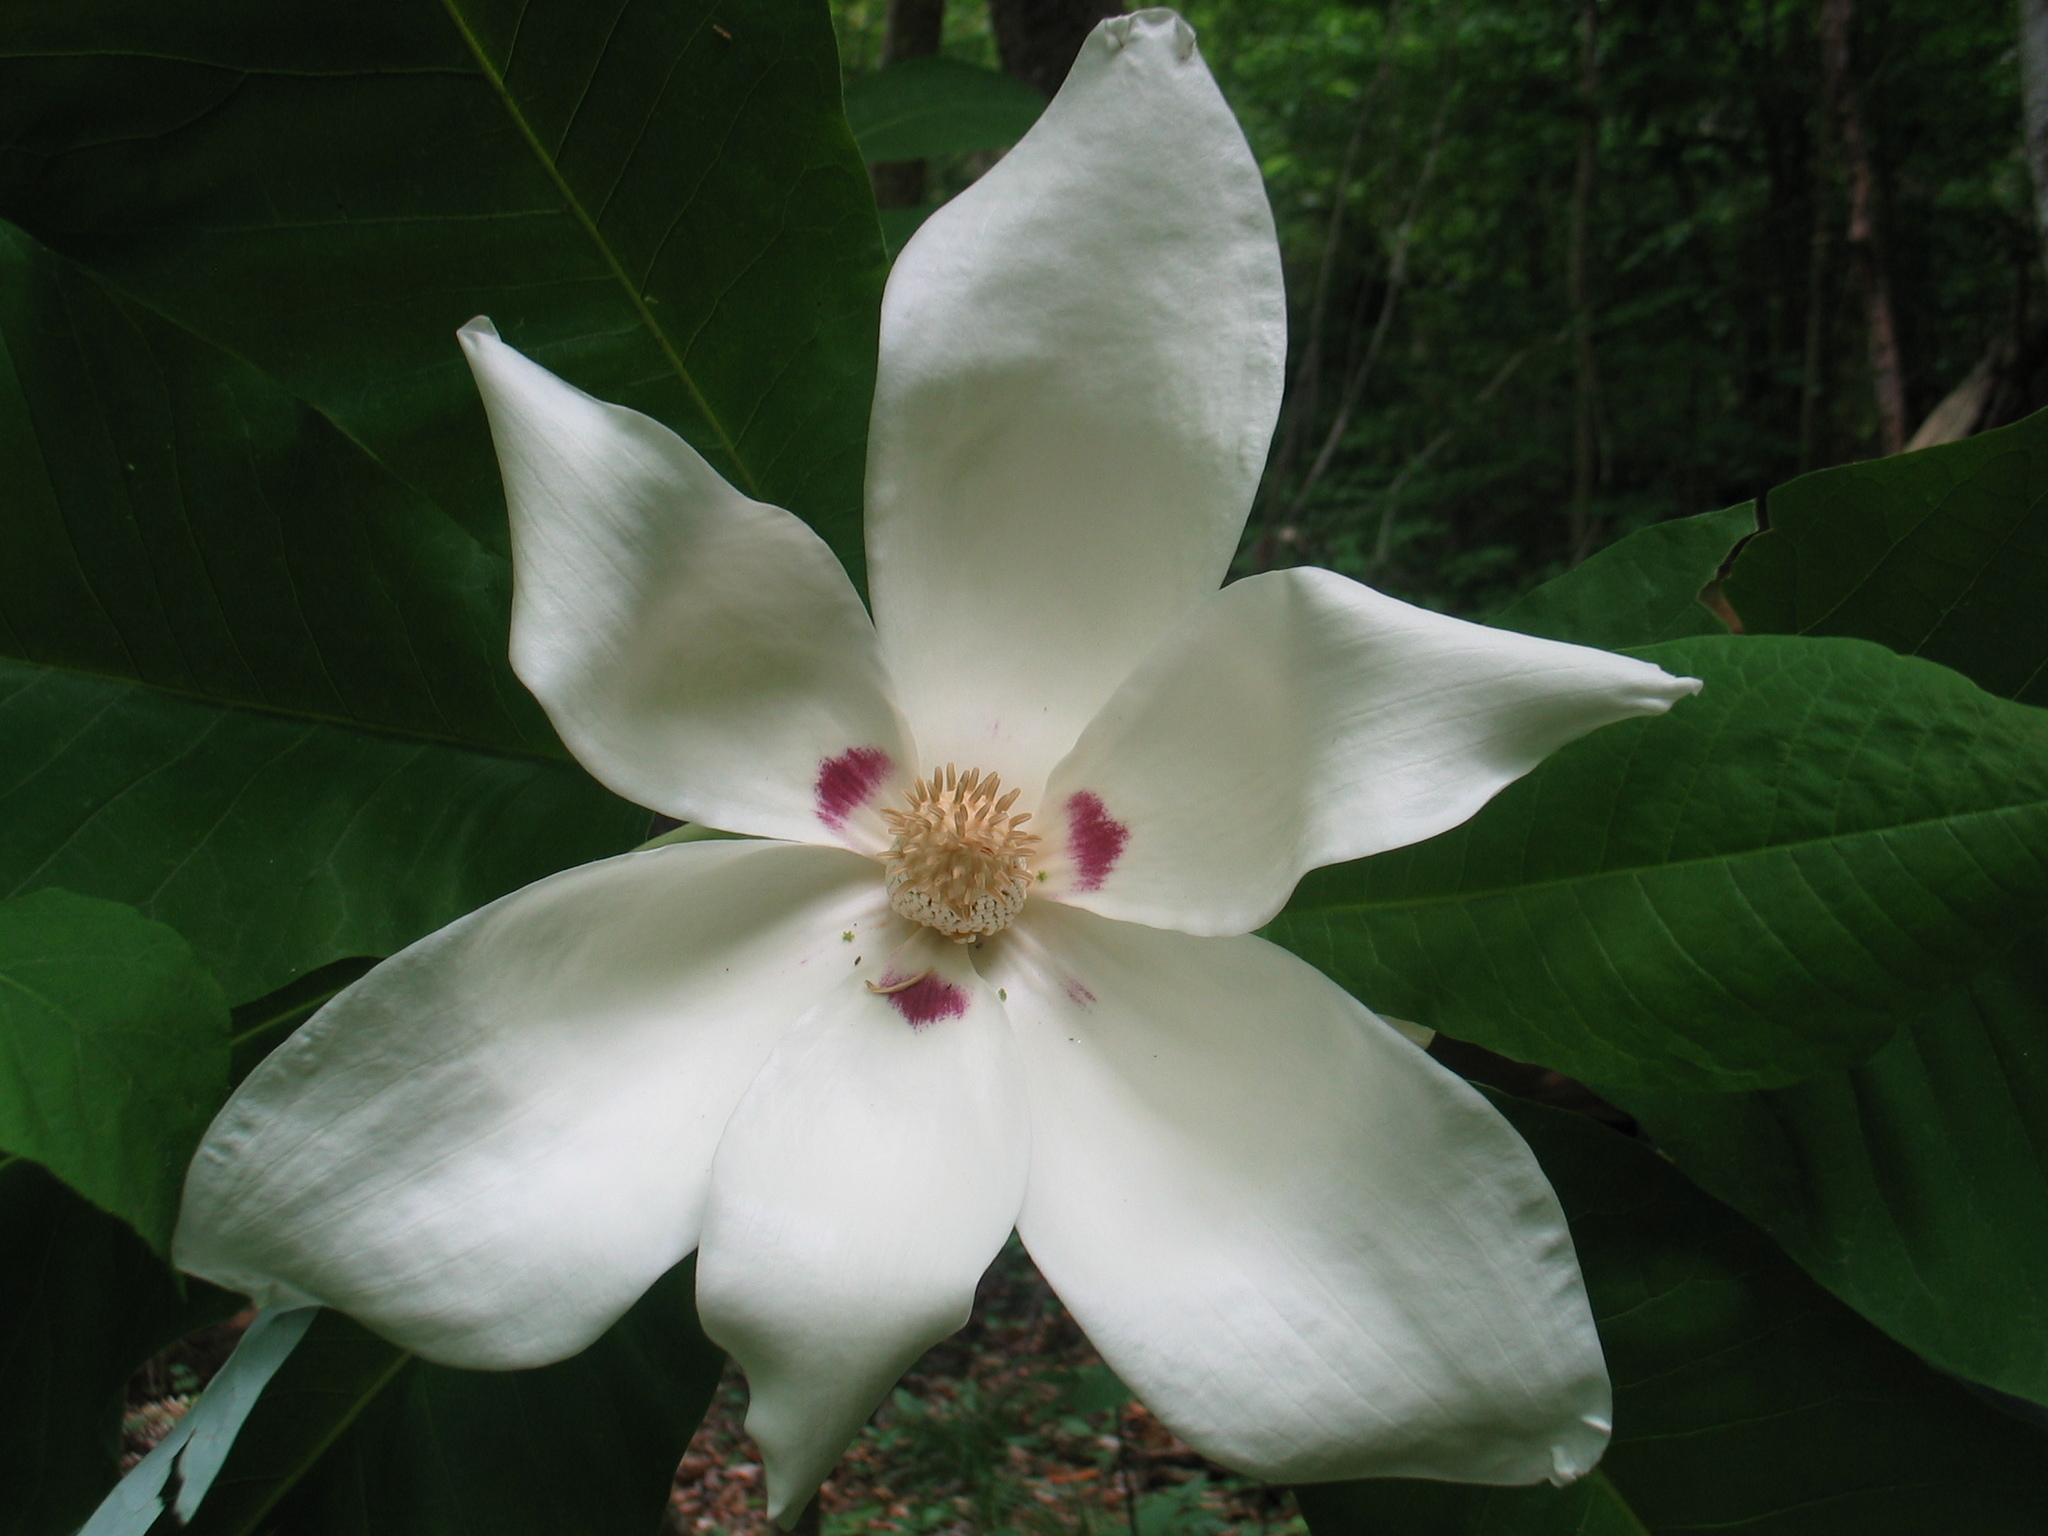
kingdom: Plantae
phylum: Tracheophyta
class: Magnoliopsida
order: Magnoliales
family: Magnoliaceae
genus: Magnolia
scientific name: Magnolia macrophylla
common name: Big-leaf magnolia
